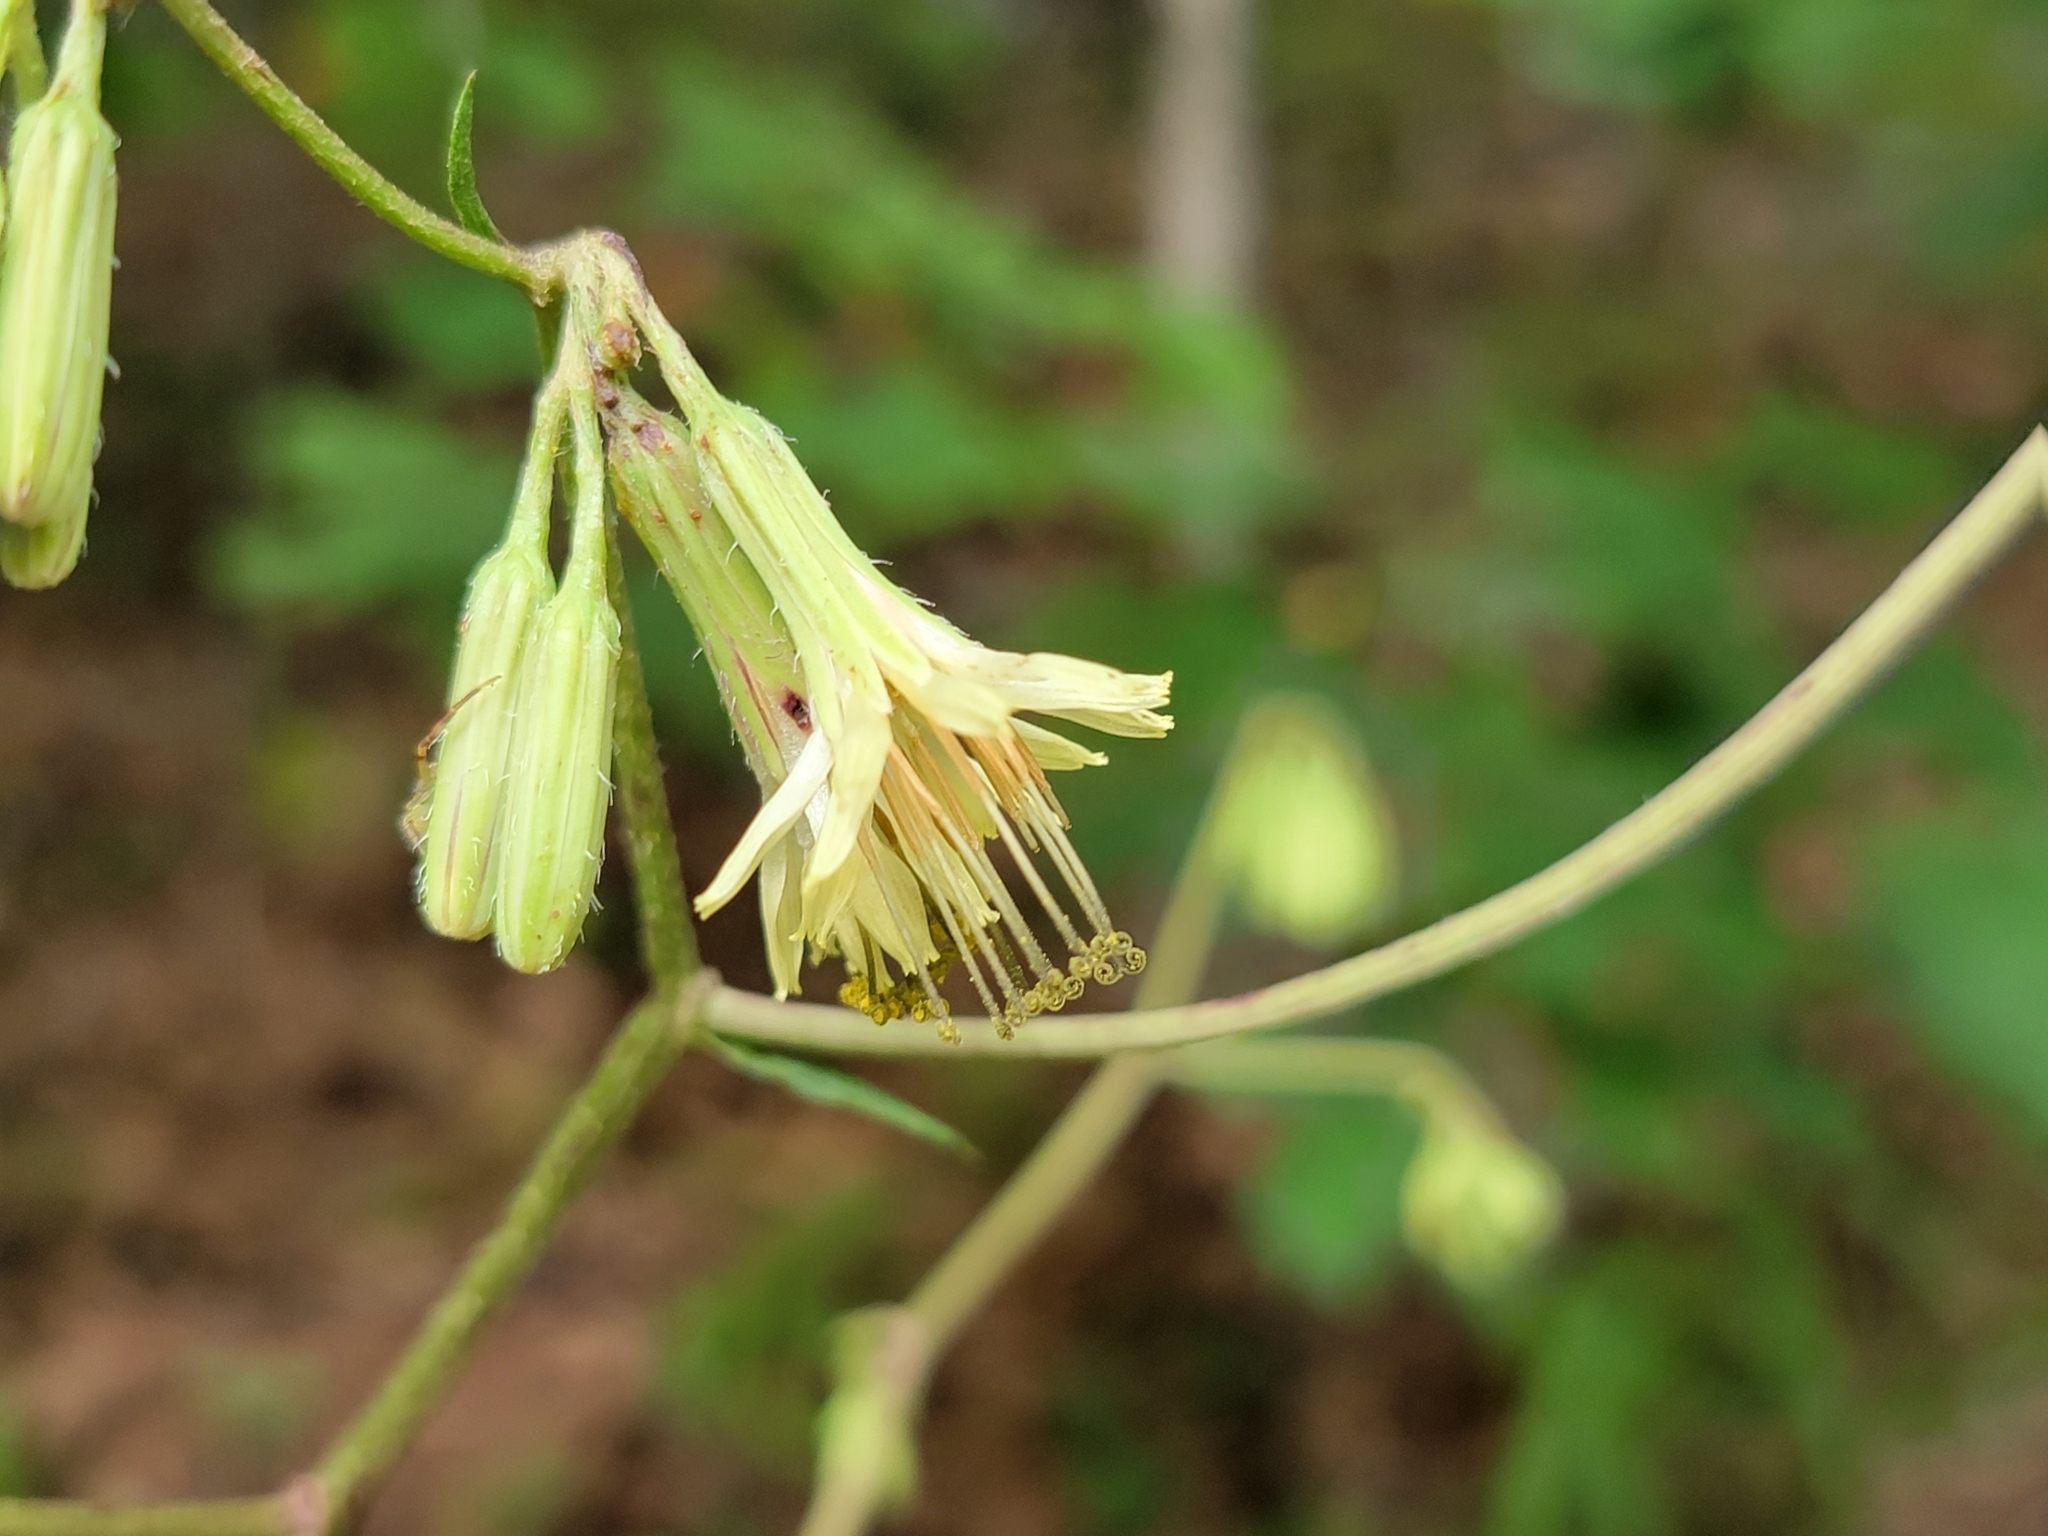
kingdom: Plantae
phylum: Tracheophyta
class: Magnoliopsida
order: Asterales
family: Asteraceae
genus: Nabalus
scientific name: Nabalus serpentarius
